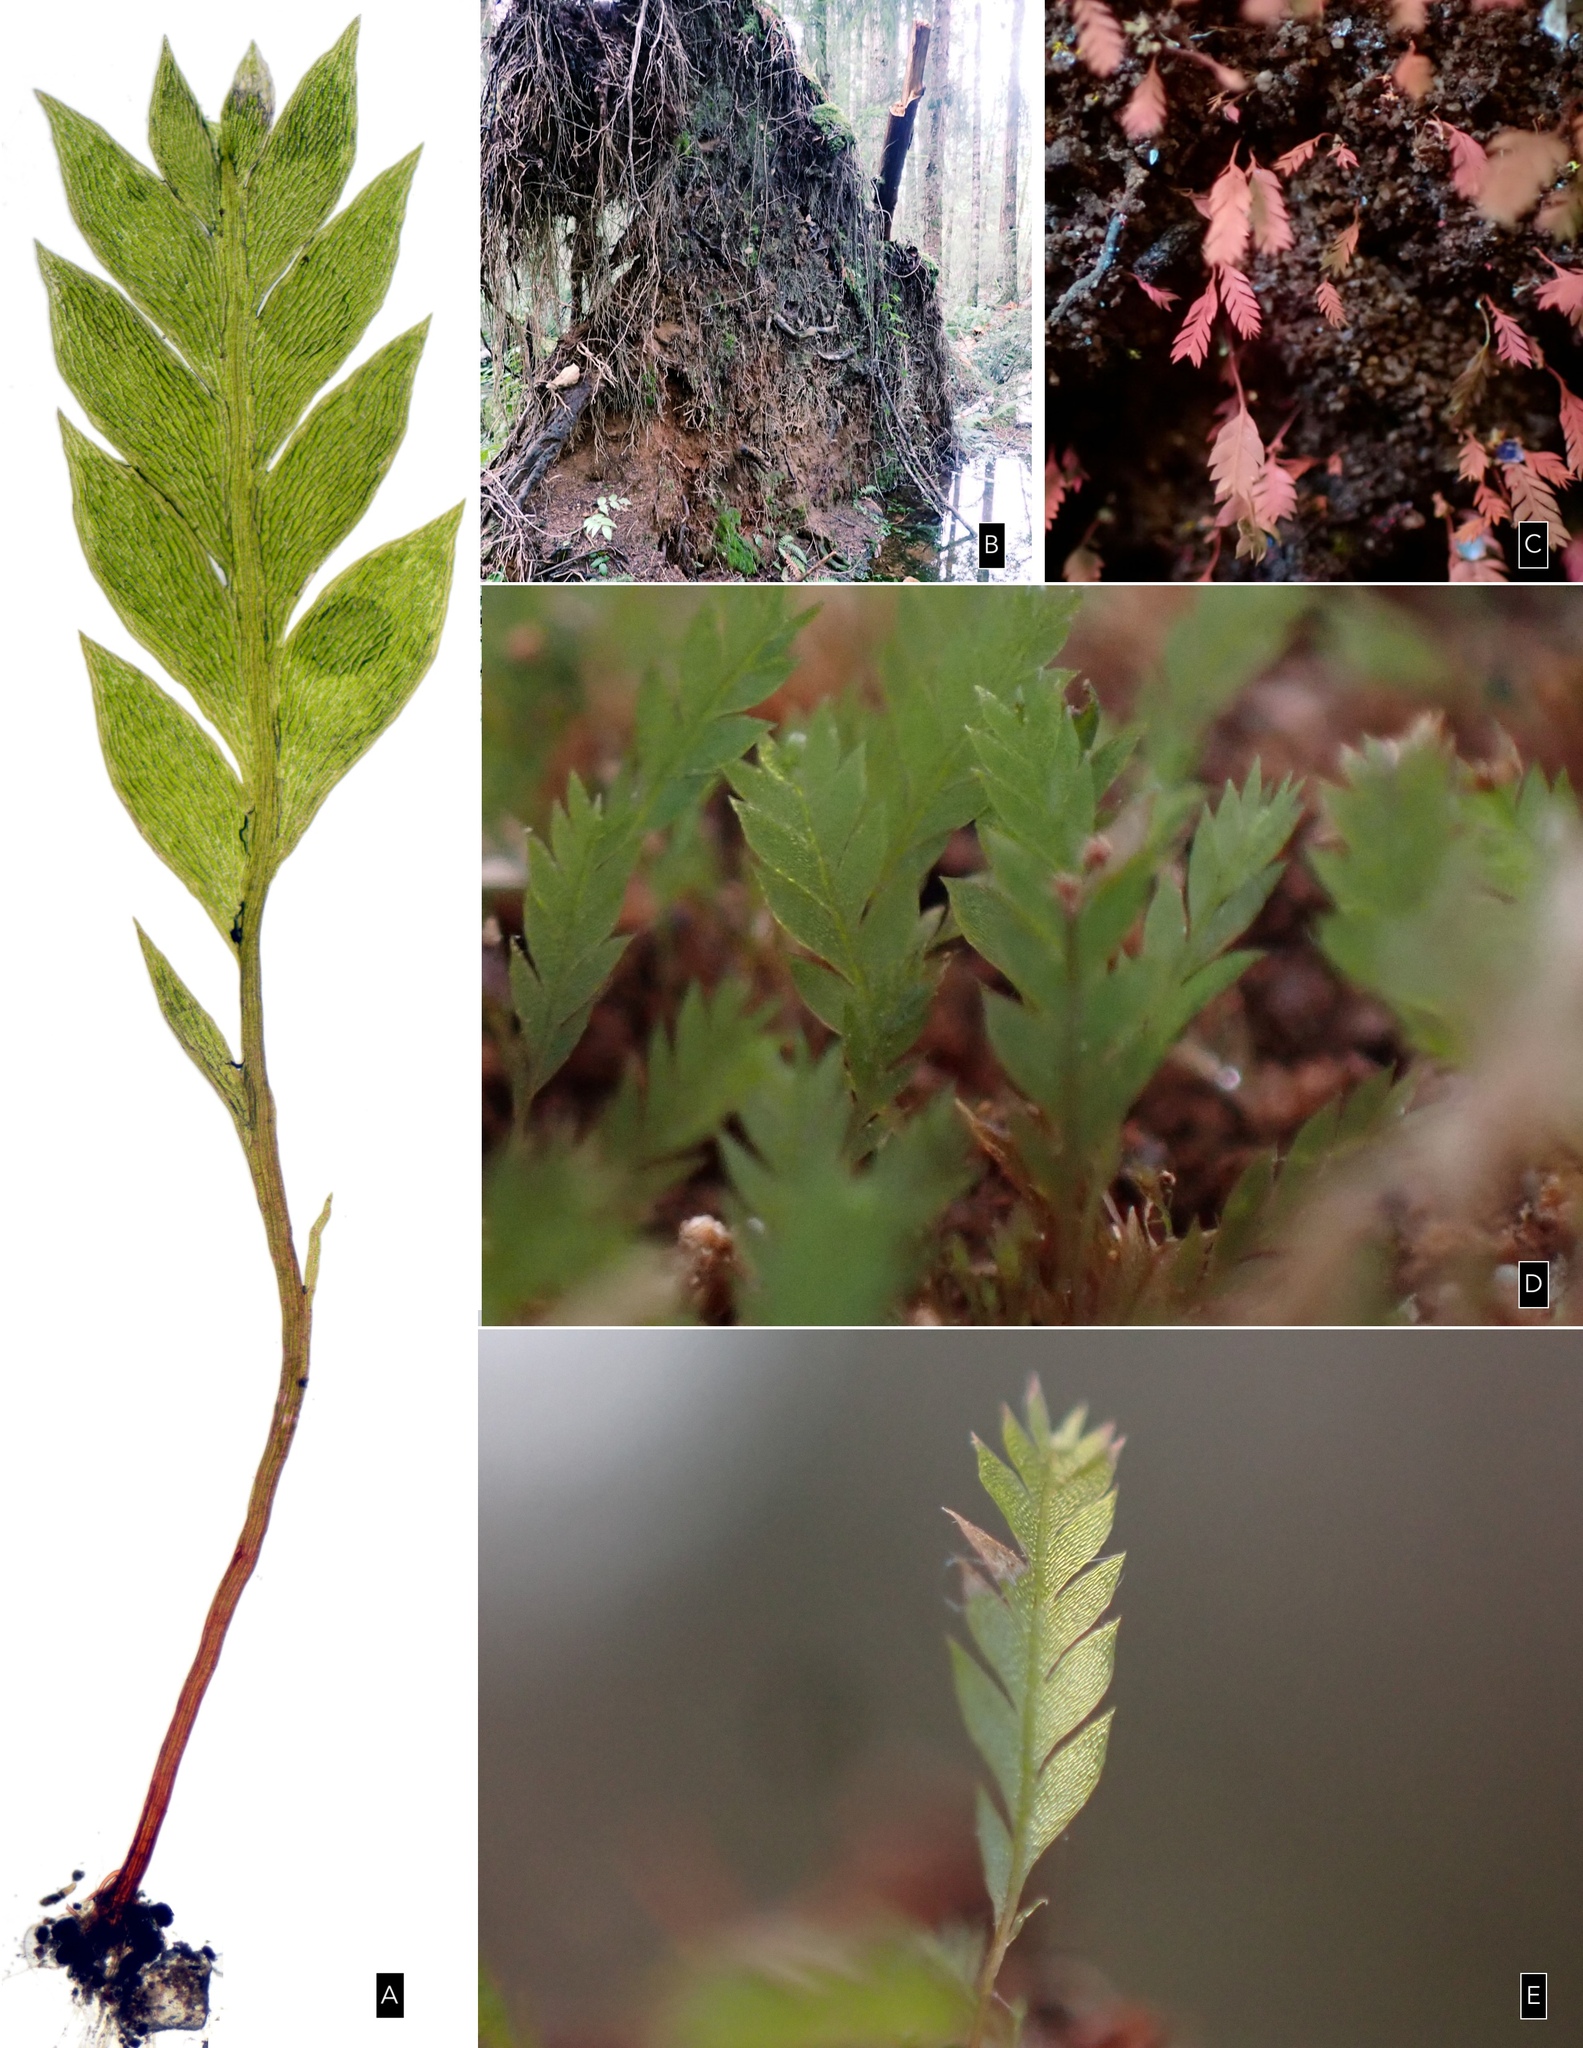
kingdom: Plantae
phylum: Bryophyta
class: Bryopsida
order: Dicranales
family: Schistostegaceae
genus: Schistostega
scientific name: Schistostega pennata
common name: Luminous moss
